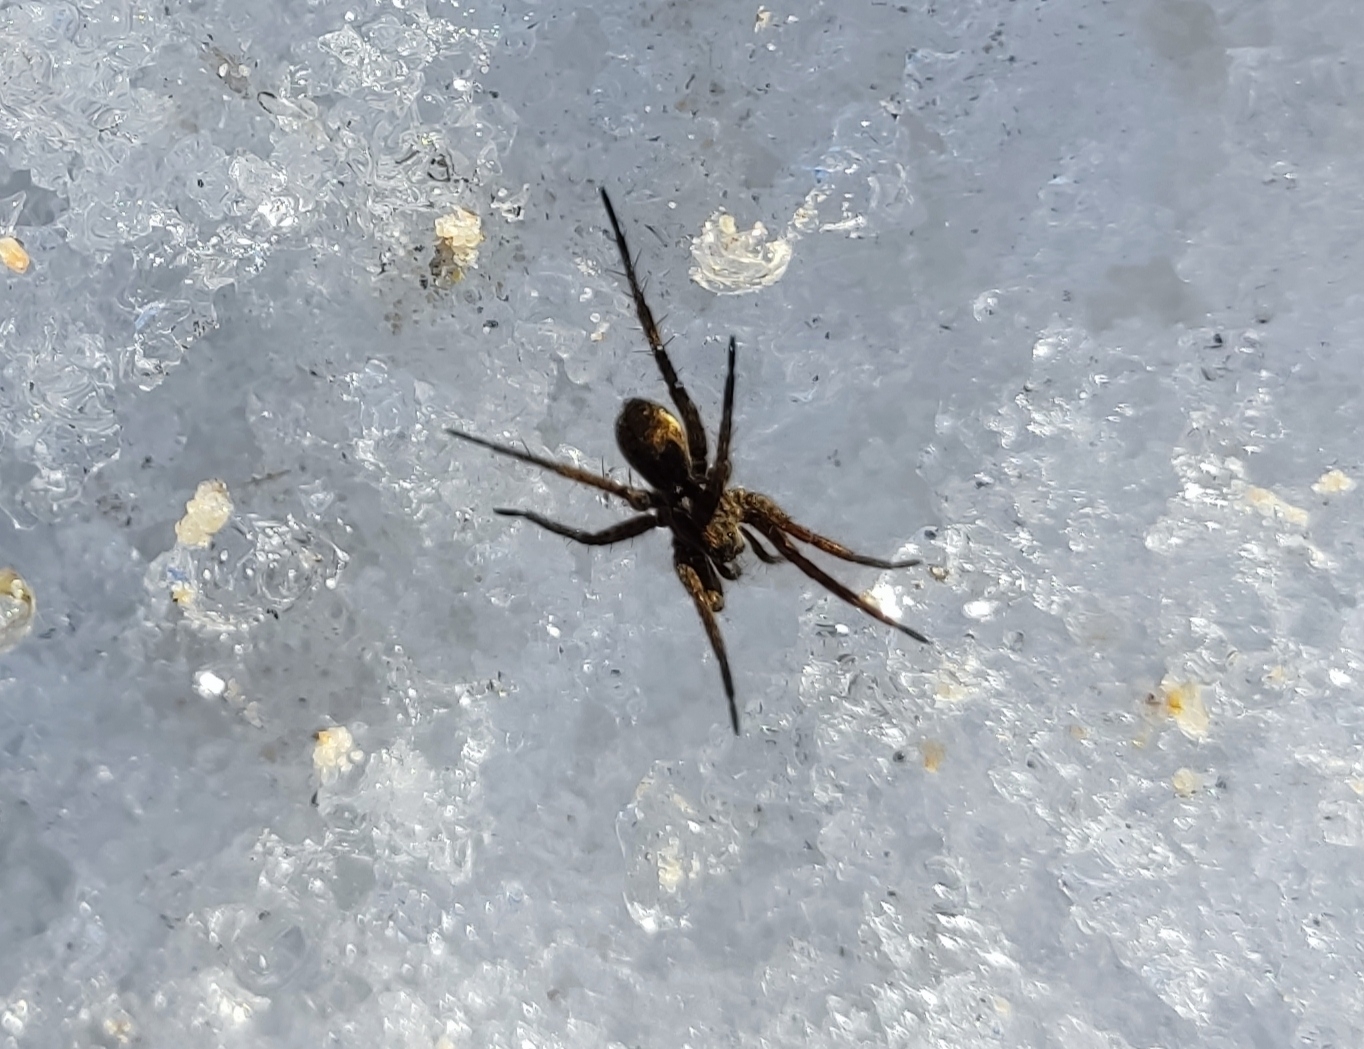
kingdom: Animalia
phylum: Arthropoda
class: Arachnida
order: Araneae
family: Lycosidae
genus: Pardosa
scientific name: Pardosa
